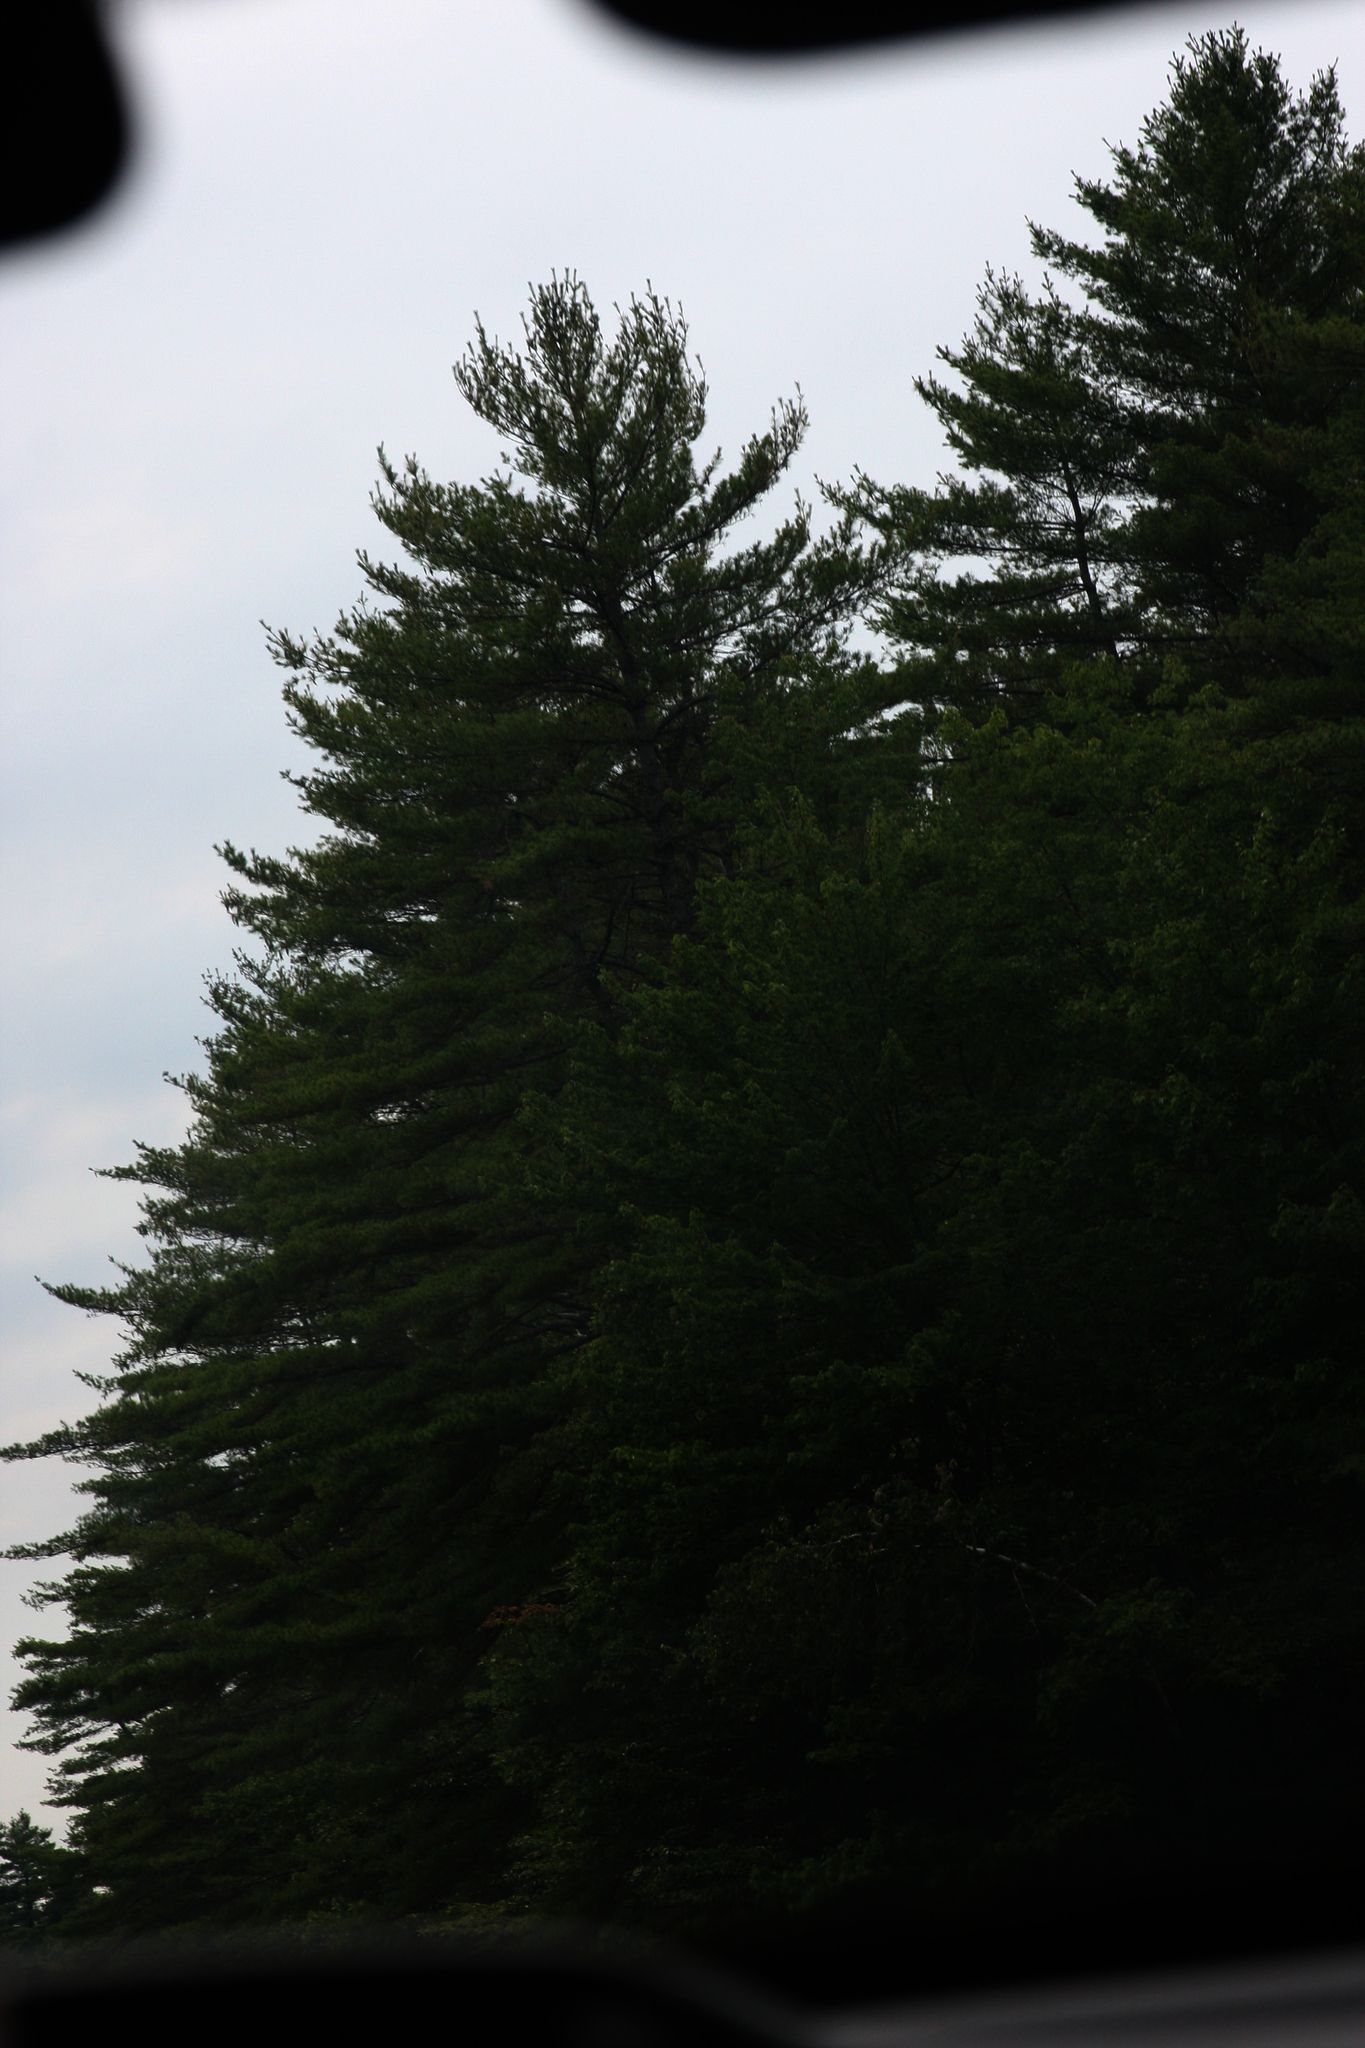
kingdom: Plantae
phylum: Tracheophyta
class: Pinopsida
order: Pinales
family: Pinaceae
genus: Pinus
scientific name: Pinus strobus
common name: Weymouth pine
